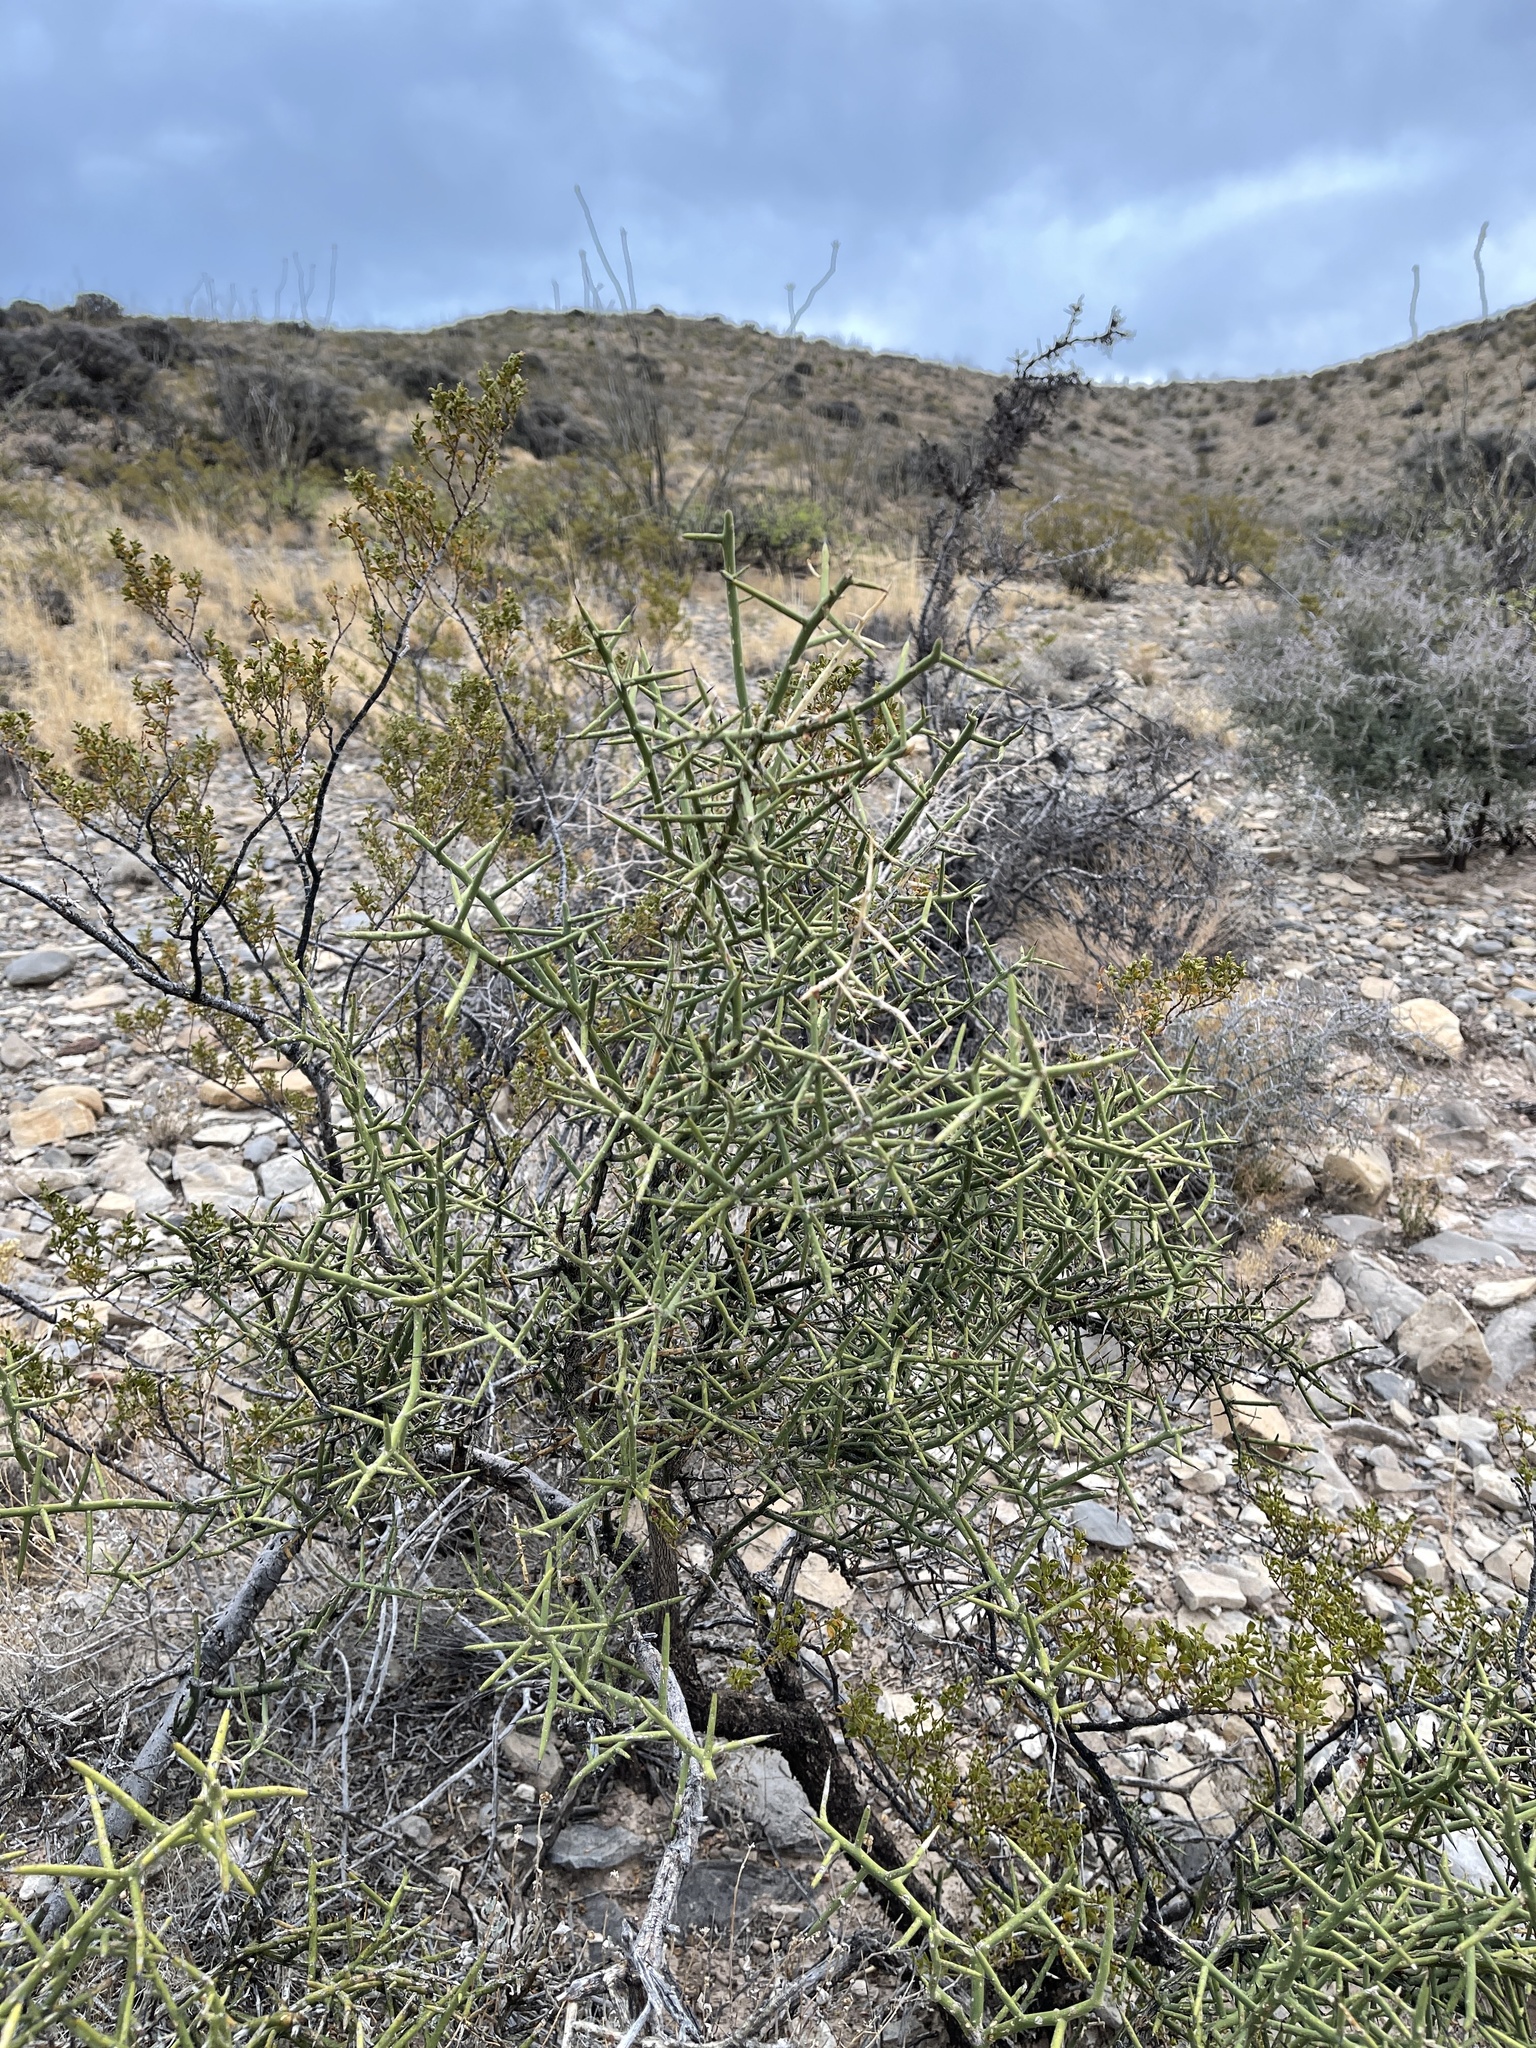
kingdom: Plantae
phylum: Tracheophyta
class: Magnoliopsida
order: Brassicales
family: Koeberliniaceae
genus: Koeberlinia
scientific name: Koeberlinia spinosa
